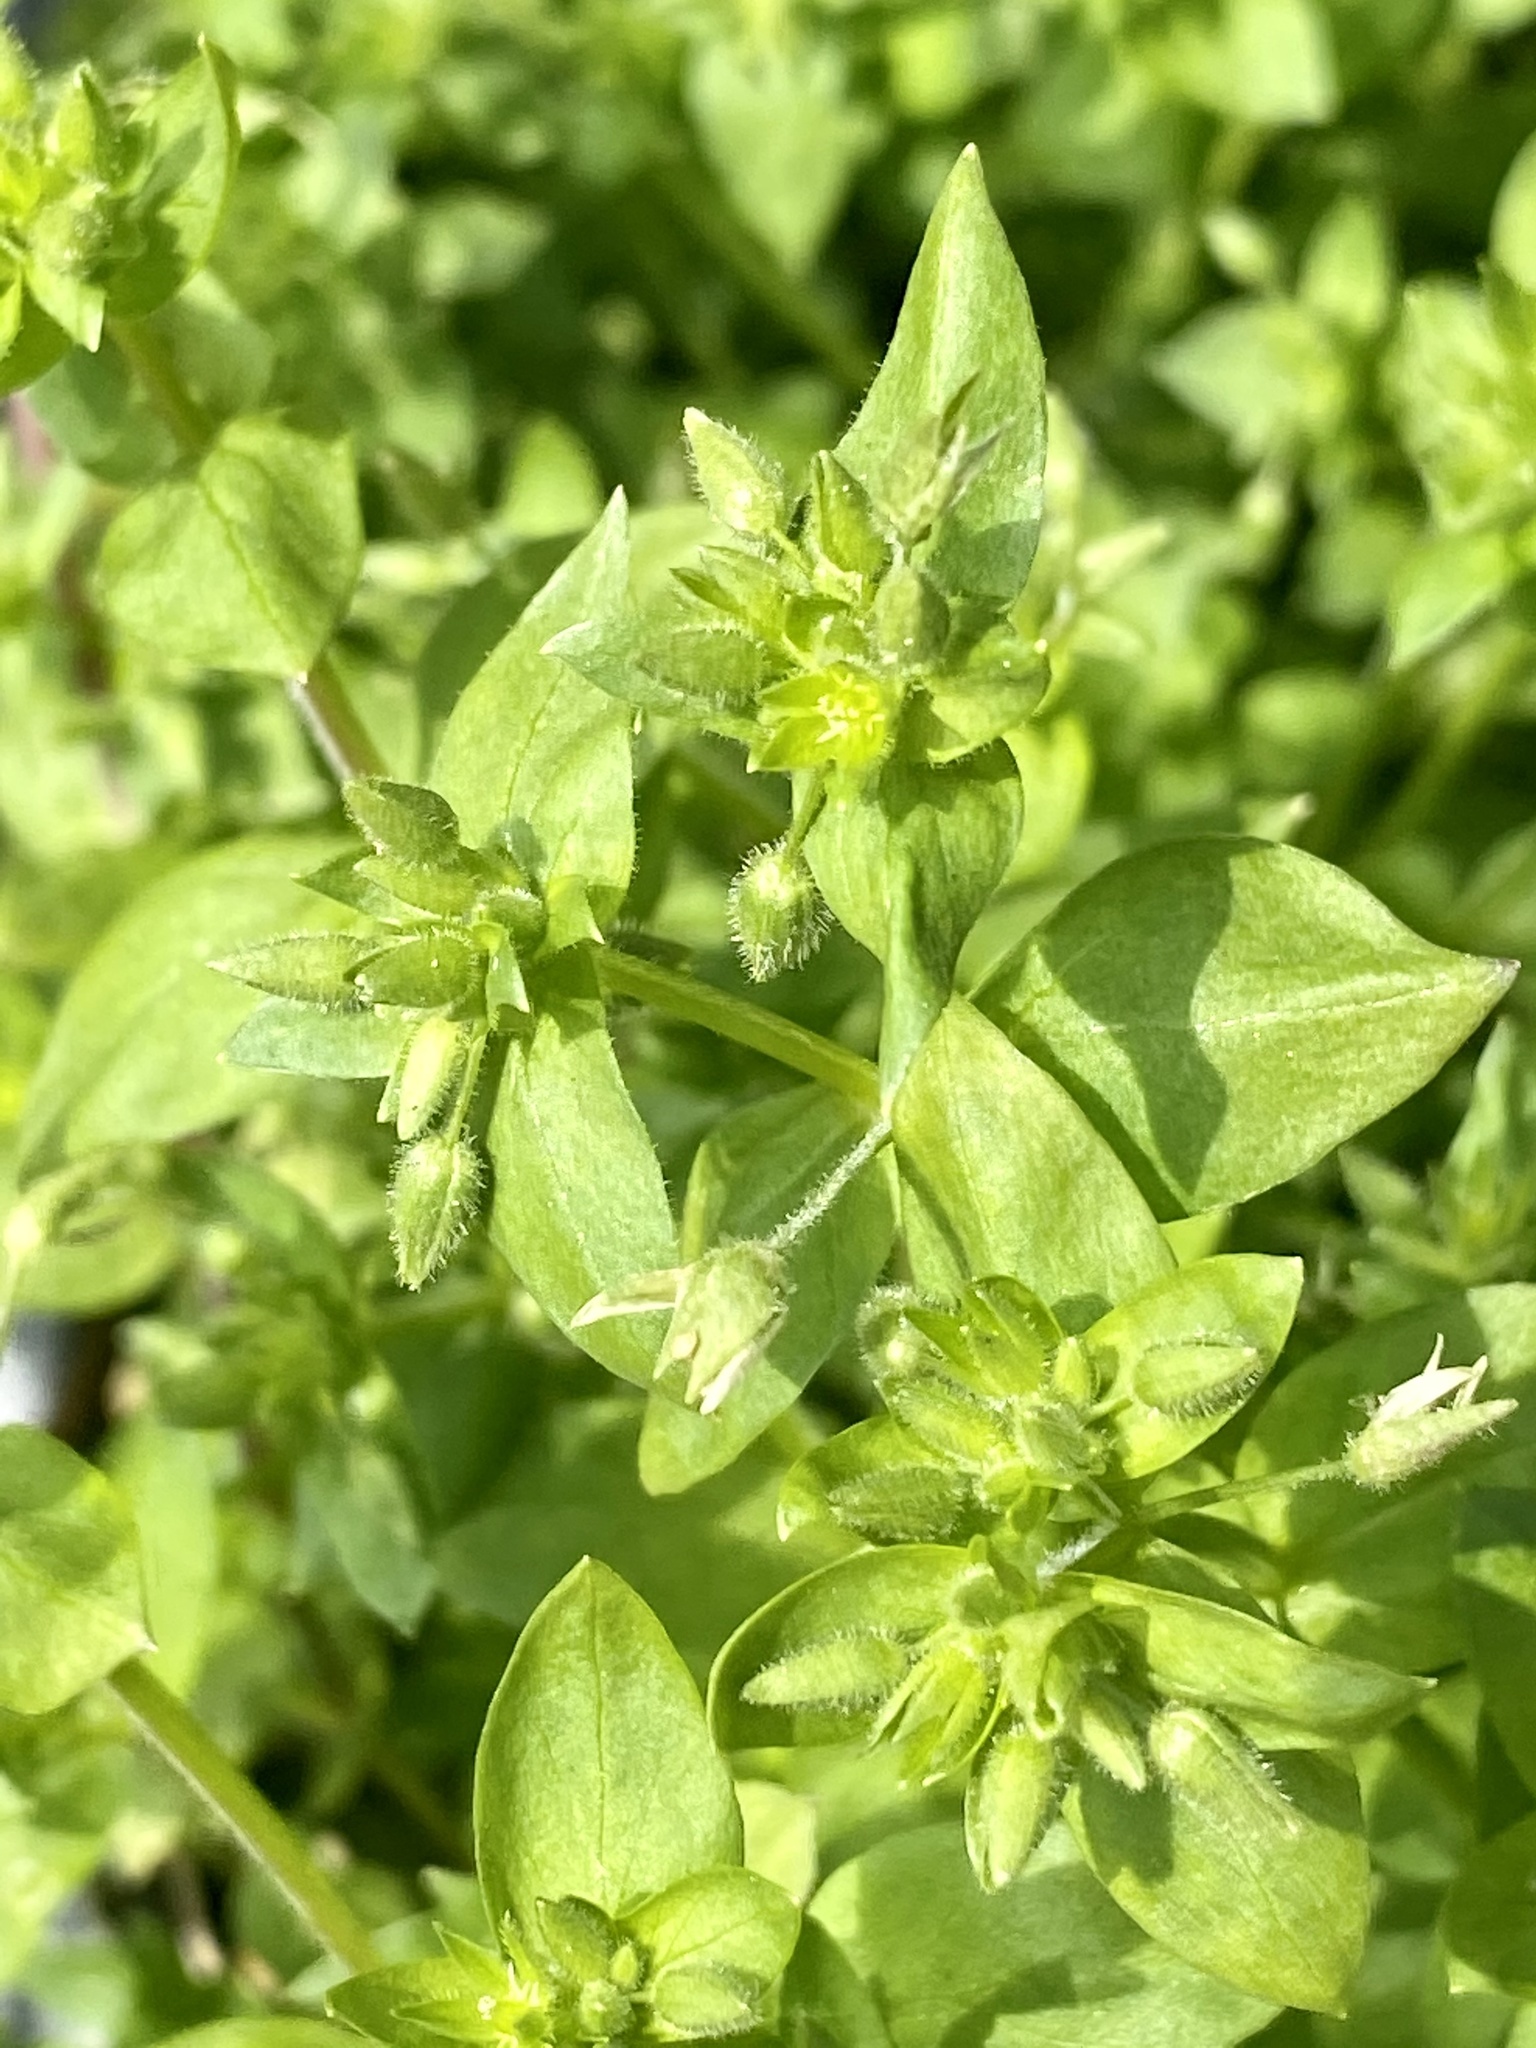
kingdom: Plantae
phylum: Tracheophyta
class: Magnoliopsida
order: Caryophyllales
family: Caryophyllaceae
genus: Stellaria
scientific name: Stellaria media
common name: Common chickweed
